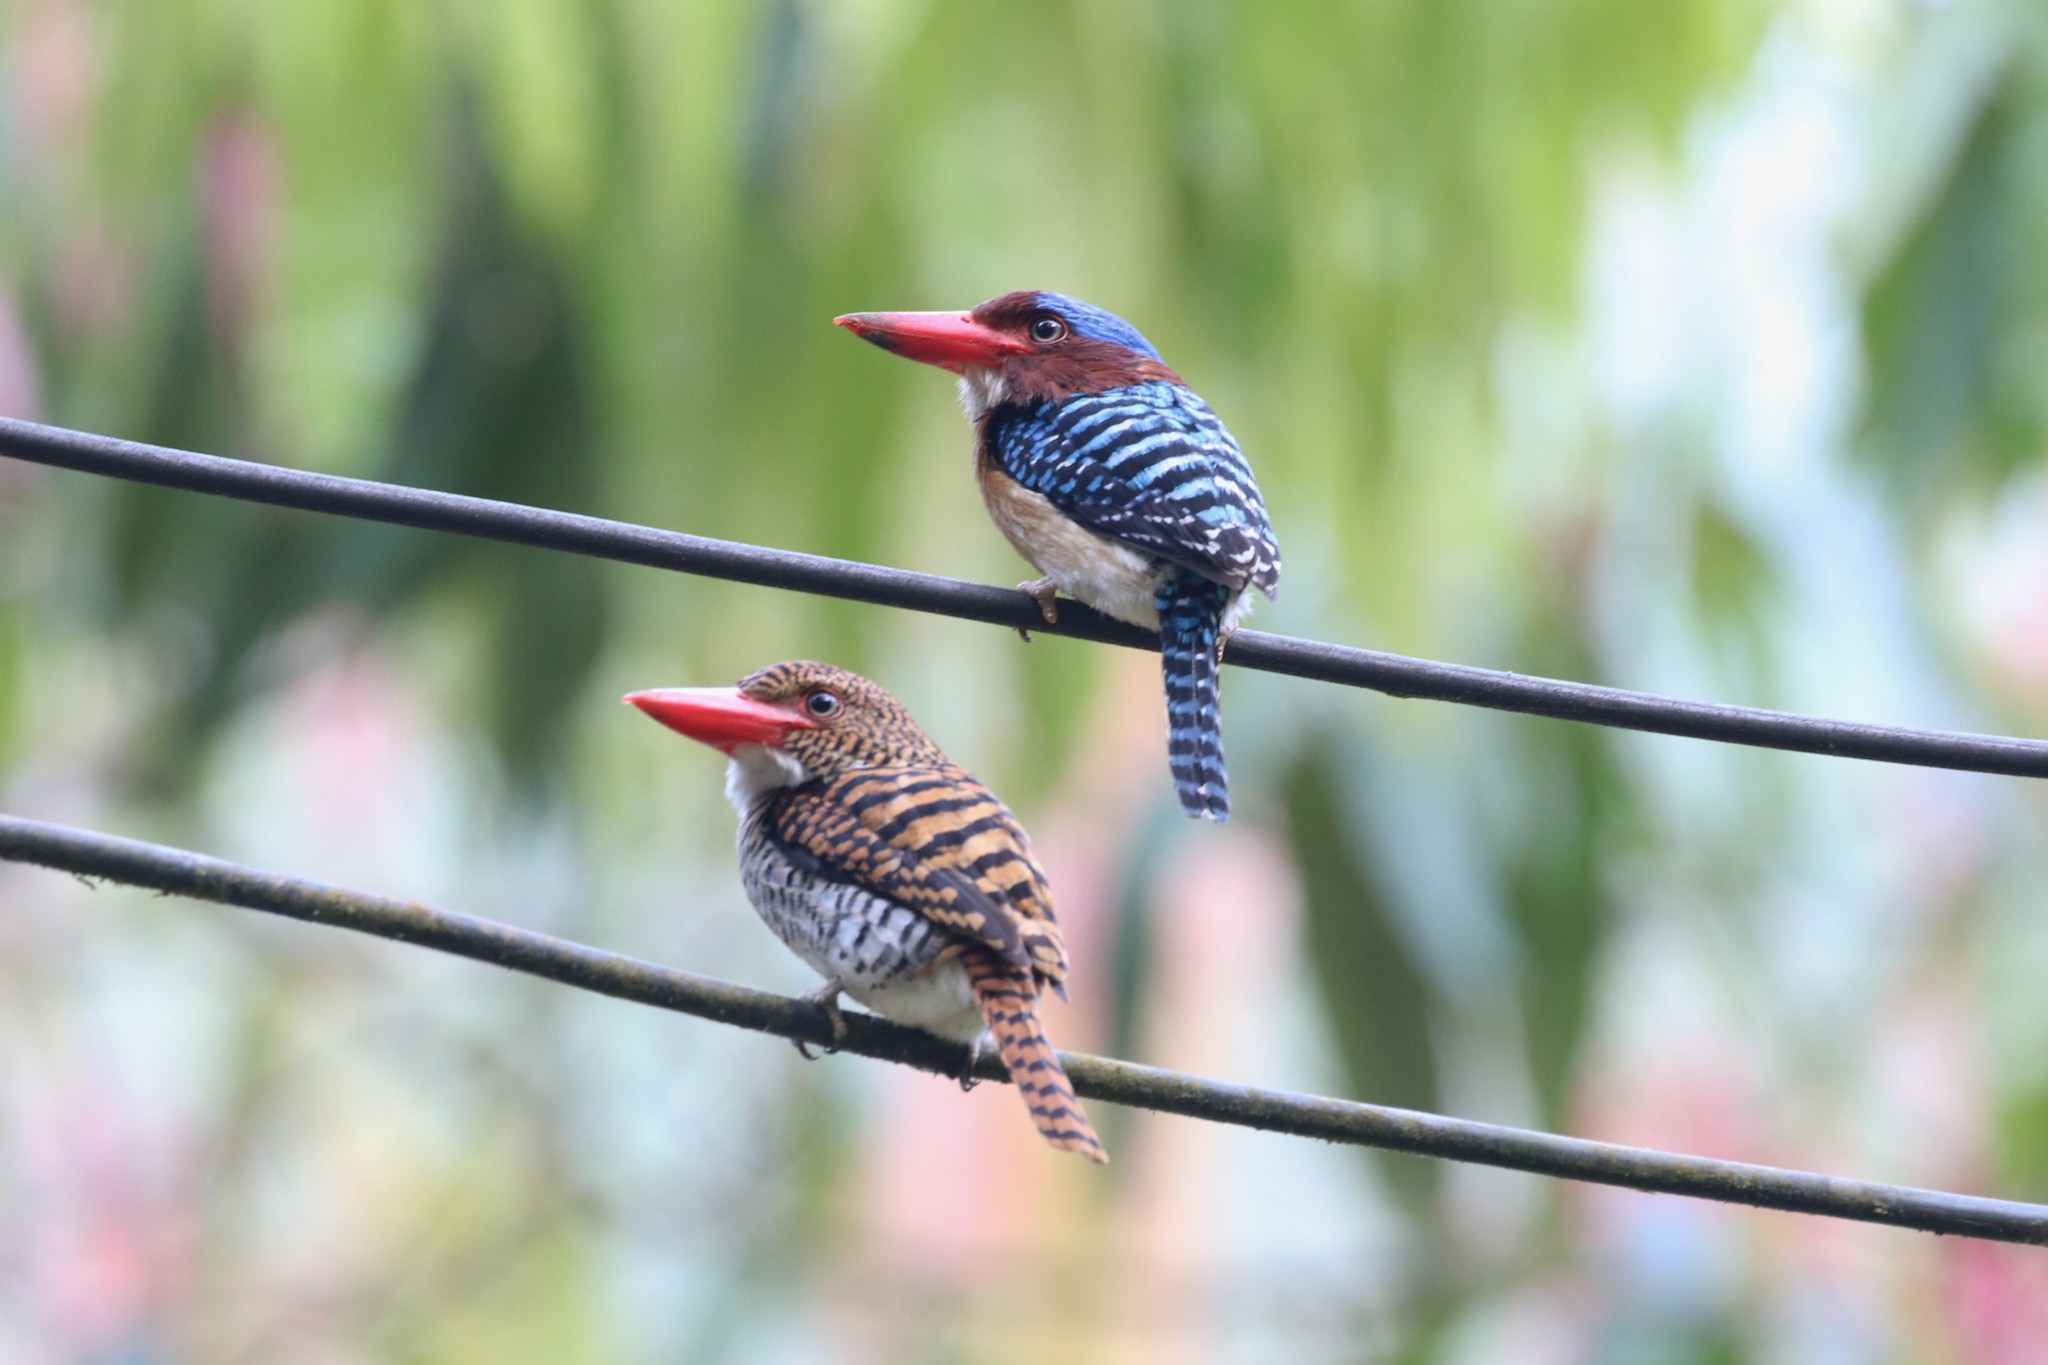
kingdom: Animalia
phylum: Chordata
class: Aves
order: Coraciiformes
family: Alcedinidae
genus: Lacedo
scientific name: Lacedo pulchella
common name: Banded kingfisher
